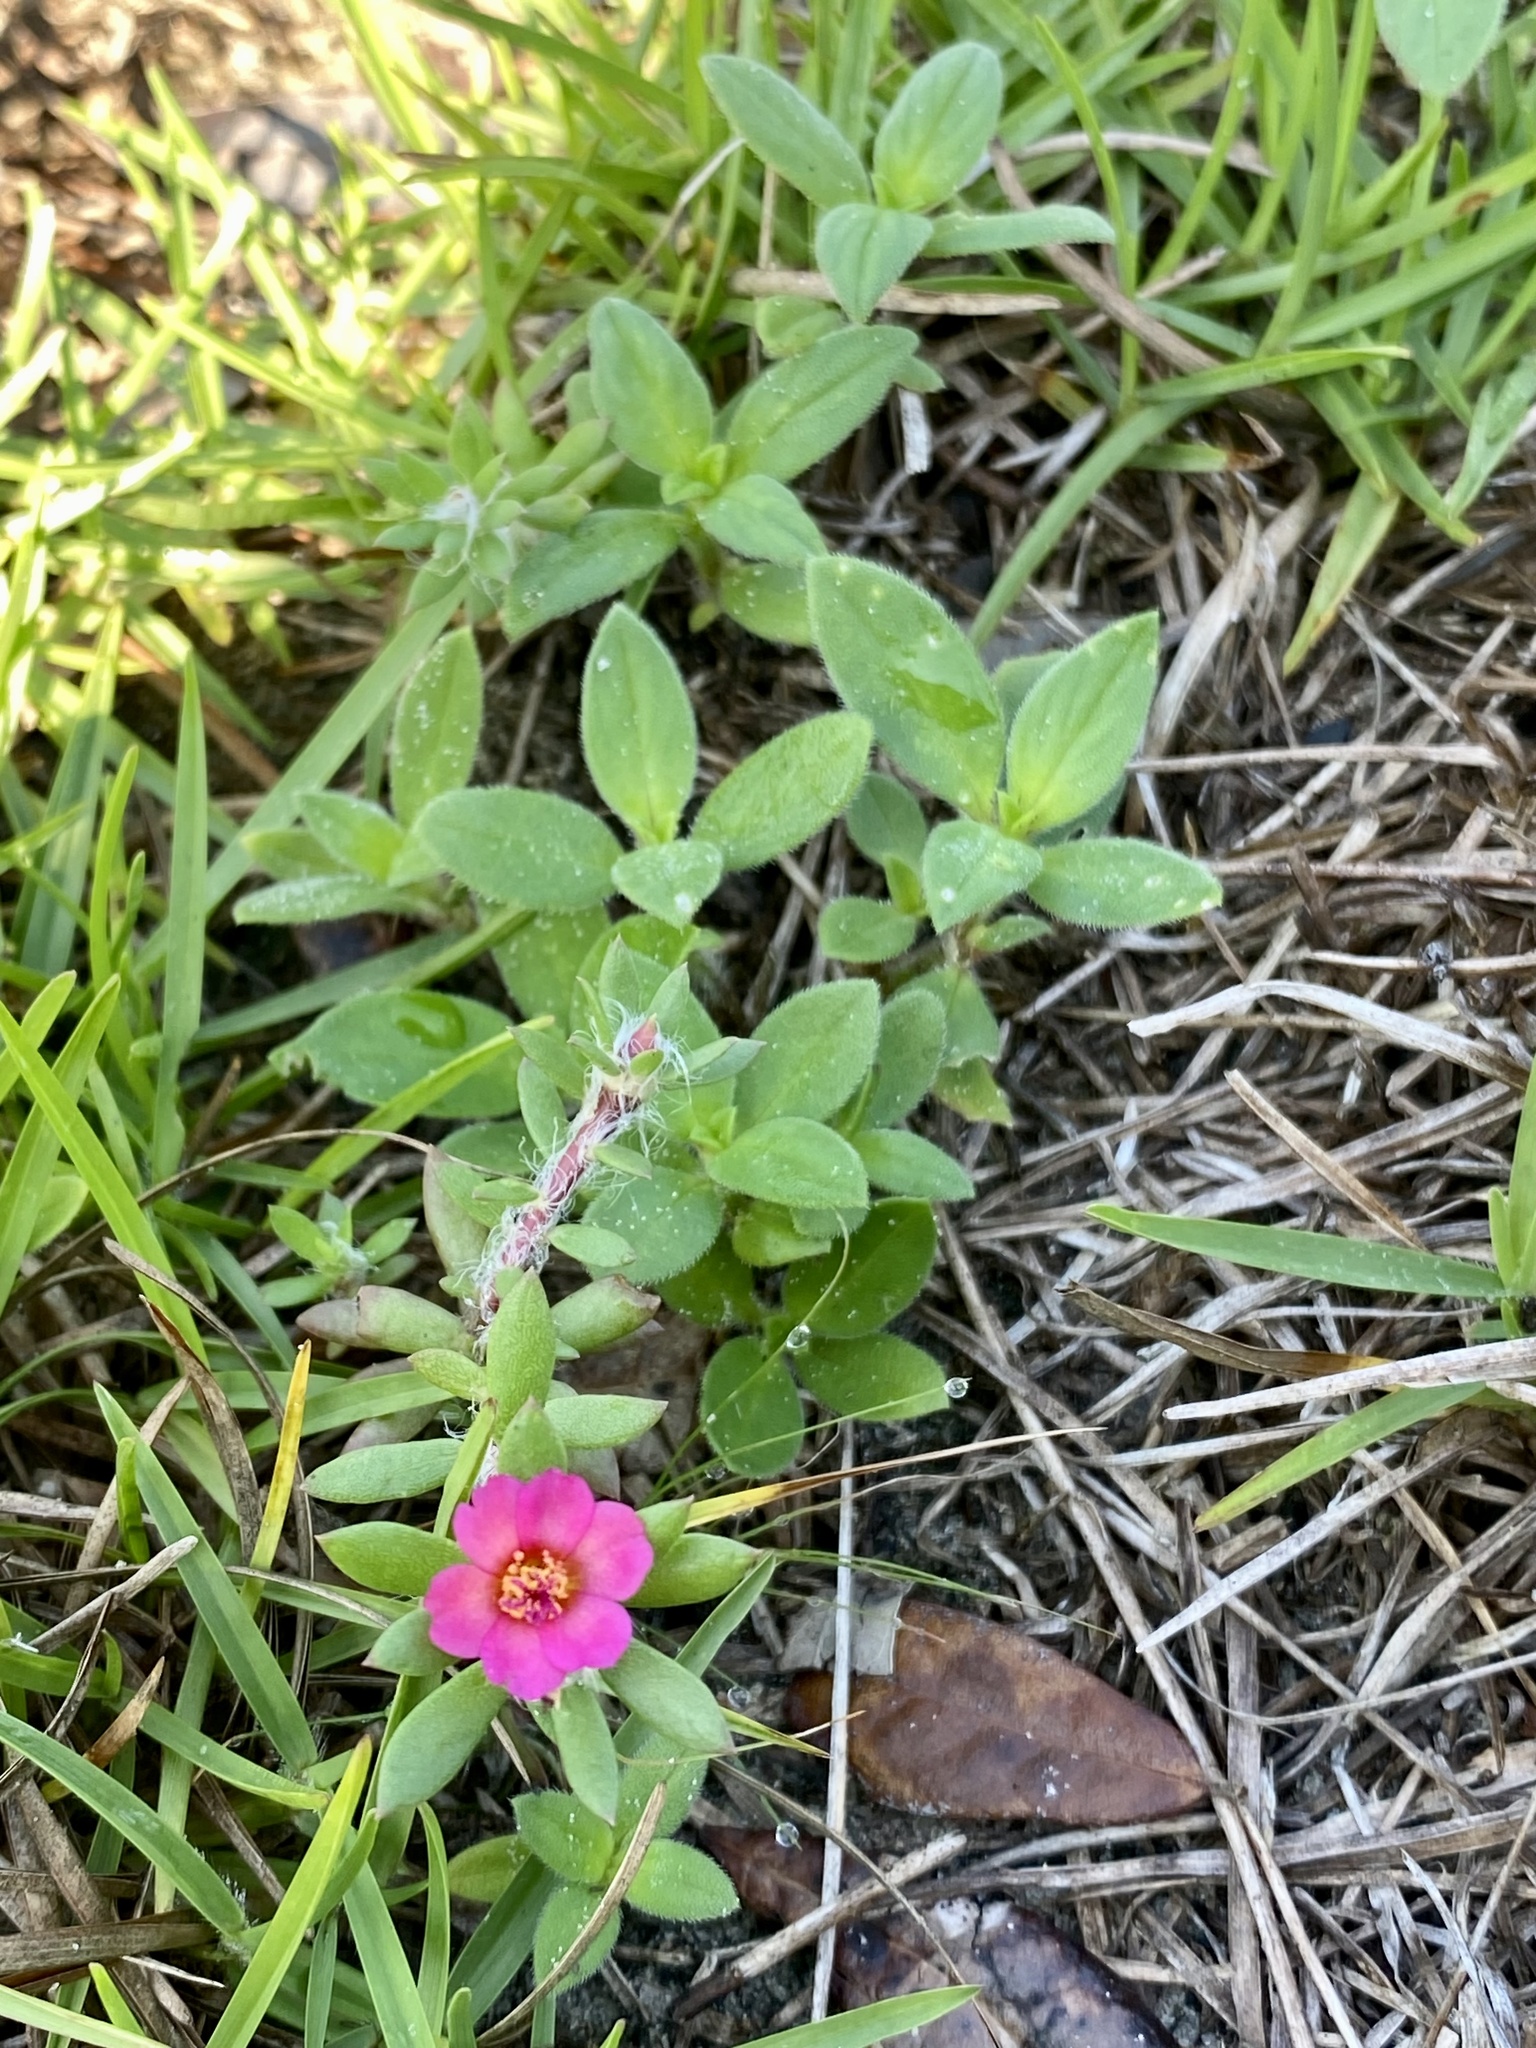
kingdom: Plantae
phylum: Tracheophyta
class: Magnoliopsida
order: Caryophyllales
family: Portulacaceae
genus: Portulaca
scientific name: Portulaca amilis
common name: Paraguayan purslane
